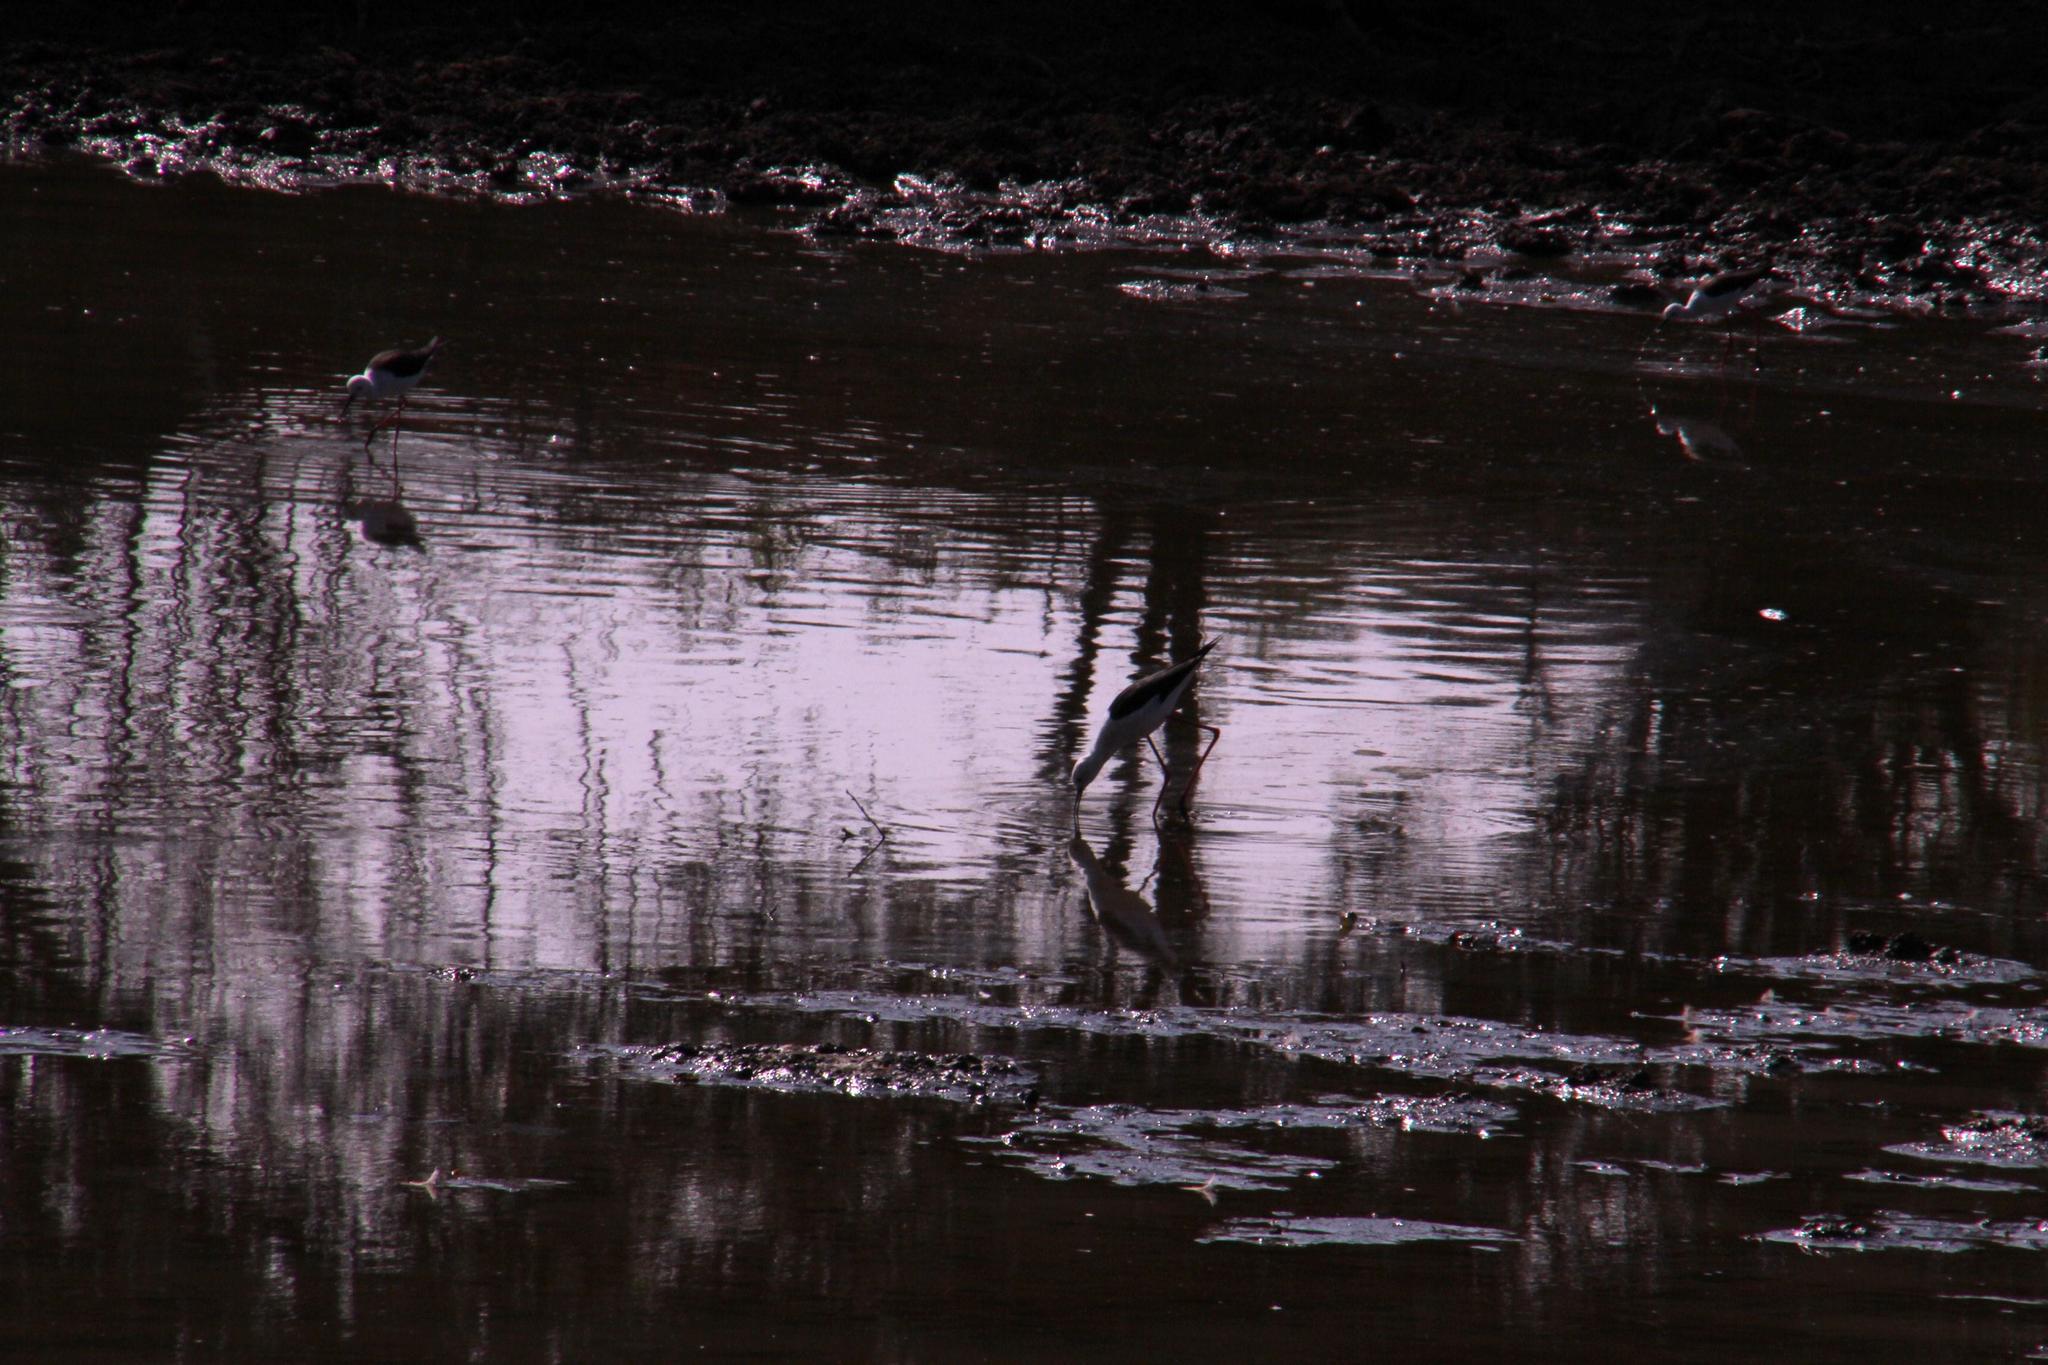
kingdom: Animalia
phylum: Chordata
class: Aves
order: Charadriiformes
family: Recurvirostridae
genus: Himantopus
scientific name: Himantopus himantopus
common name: Black-winged stilt
